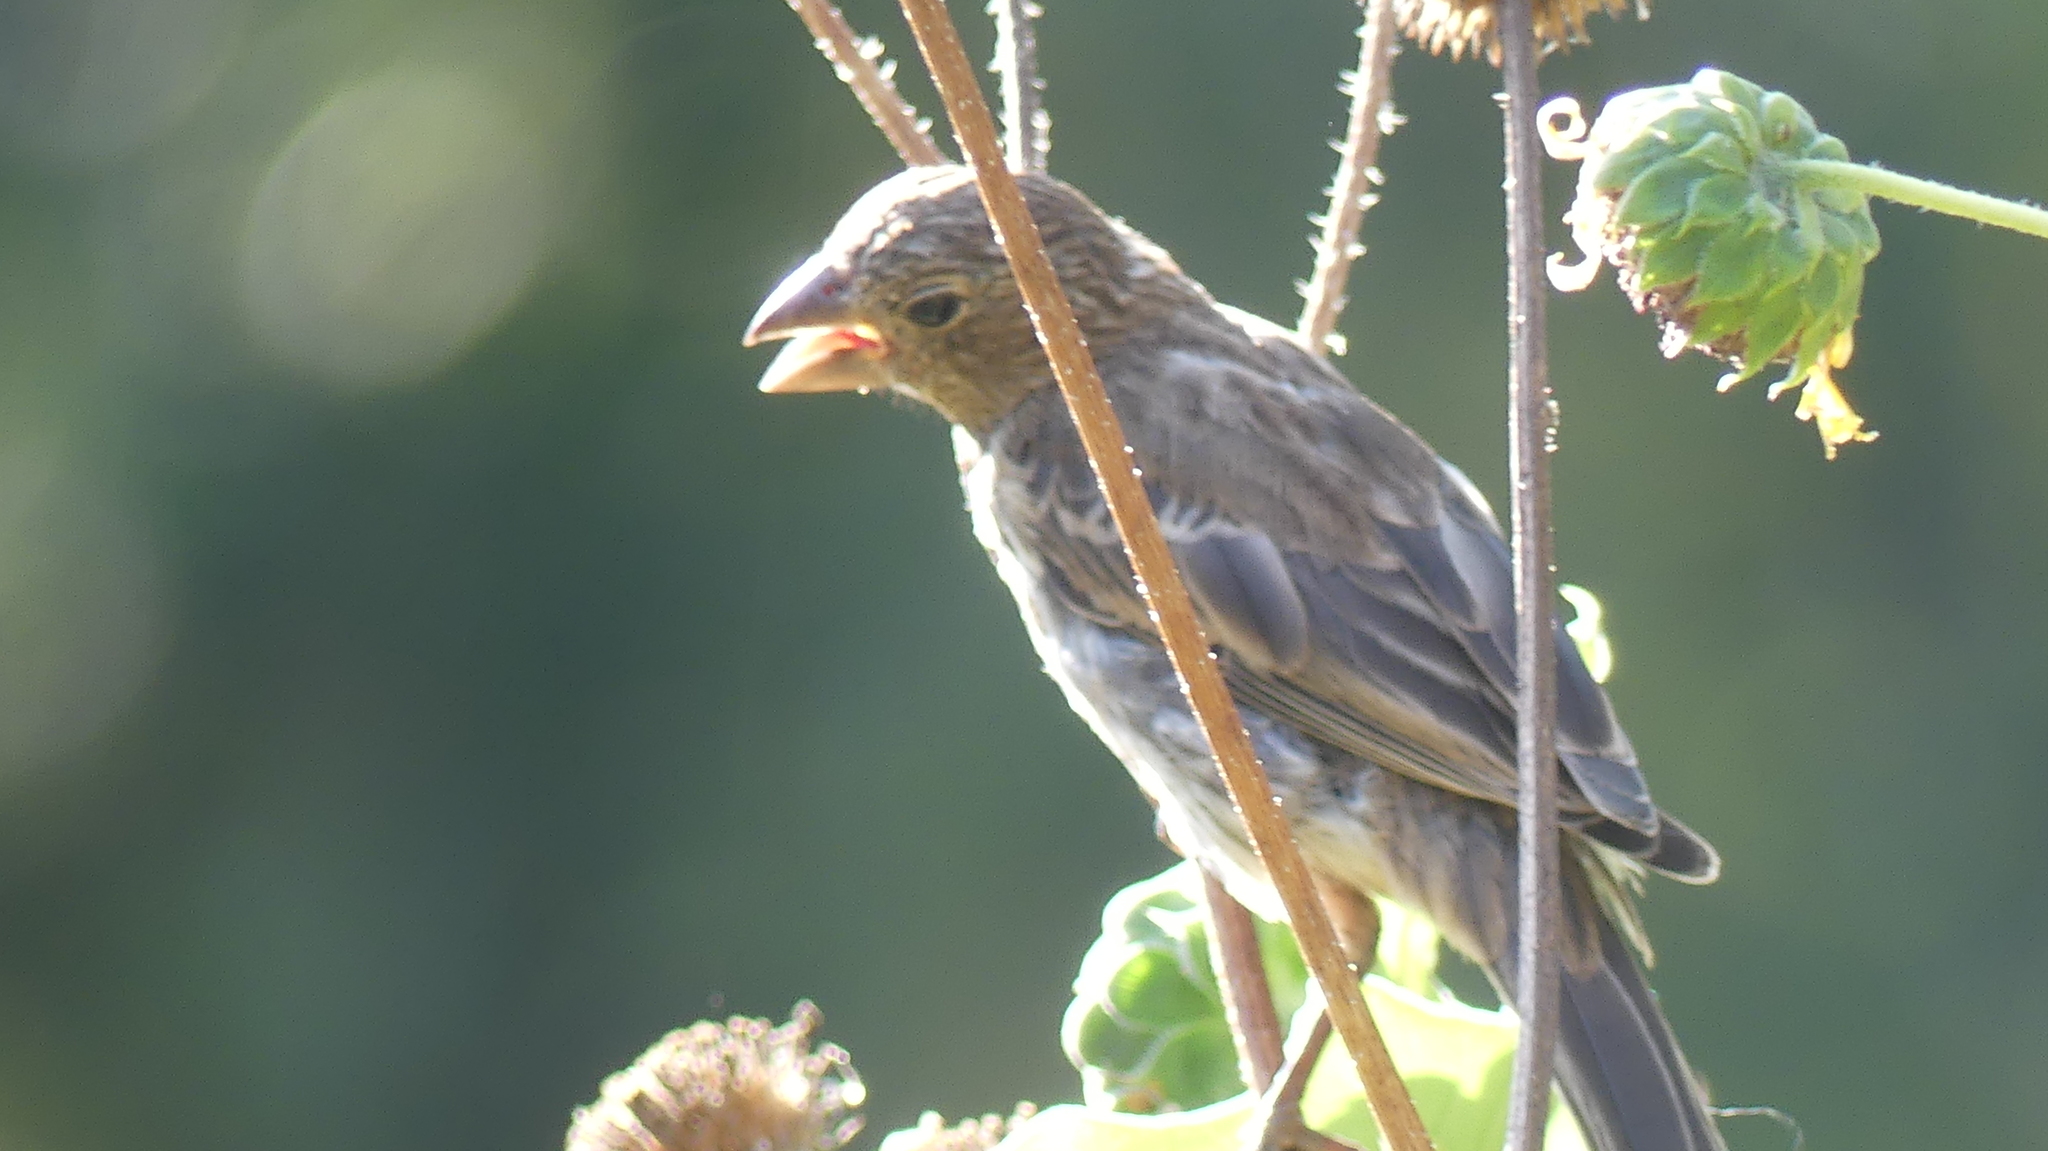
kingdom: Animalia
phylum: Chordata
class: Aves
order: Passeriformes
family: Fringillidae
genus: Haemorhous
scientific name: Haemorhous mexicanus
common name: House finch
